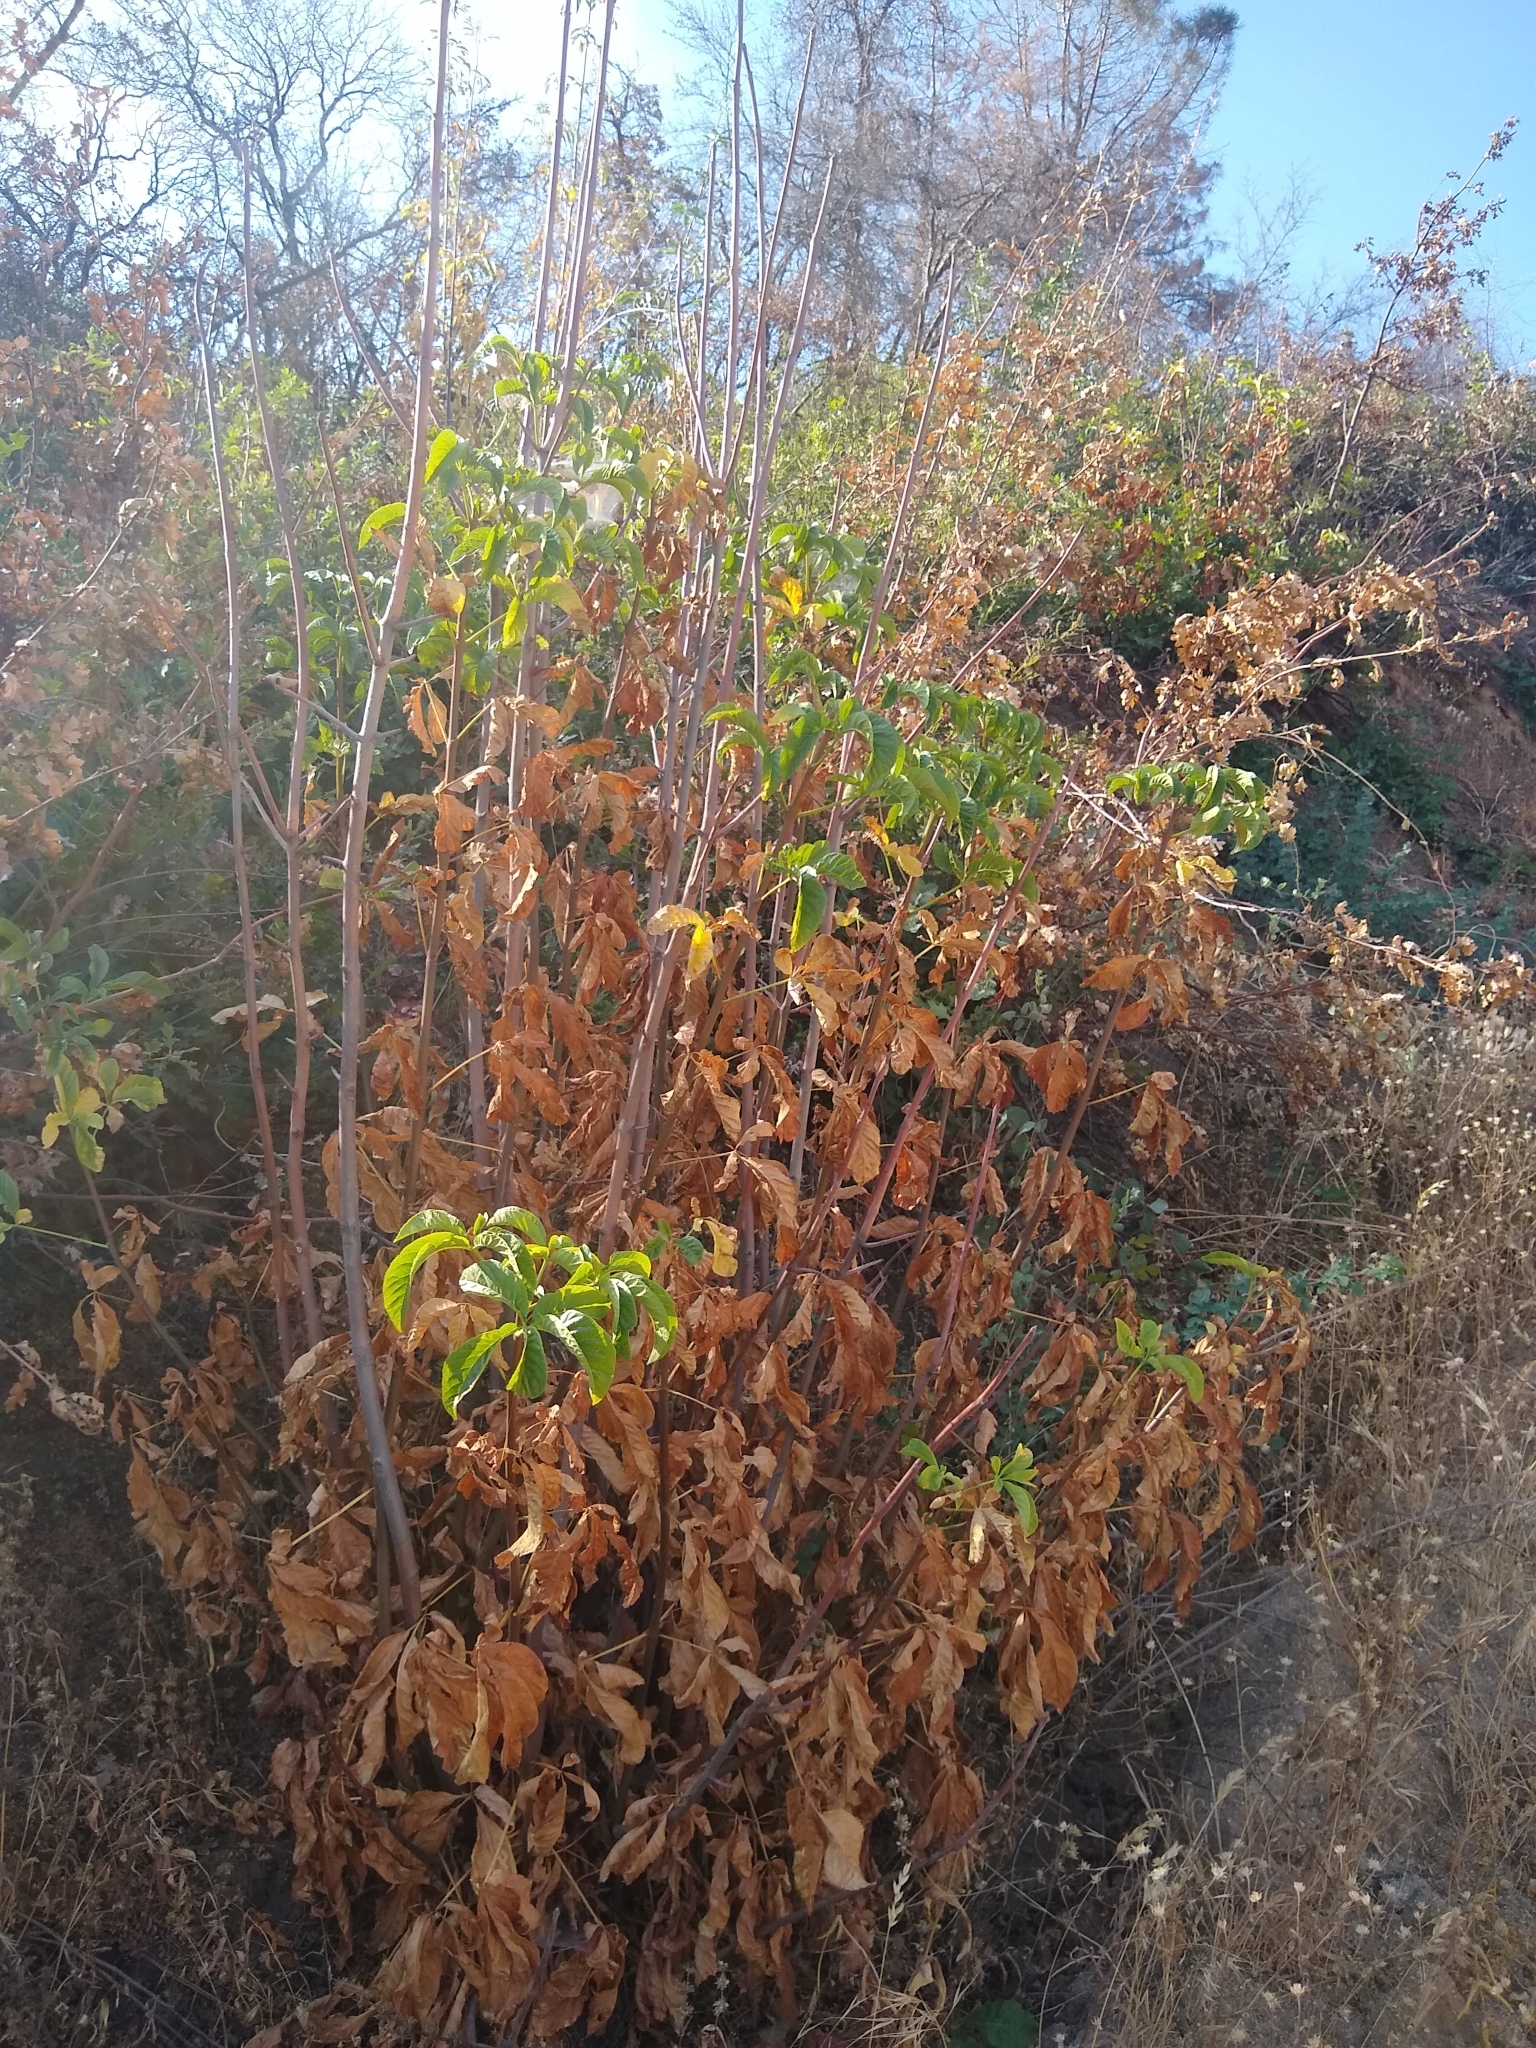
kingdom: Plantae
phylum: Tracheophyta
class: Magnoliopsida
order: Sapindales
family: Sapindaceae
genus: Aesculus
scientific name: Aesculus californica
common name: California buckeye
